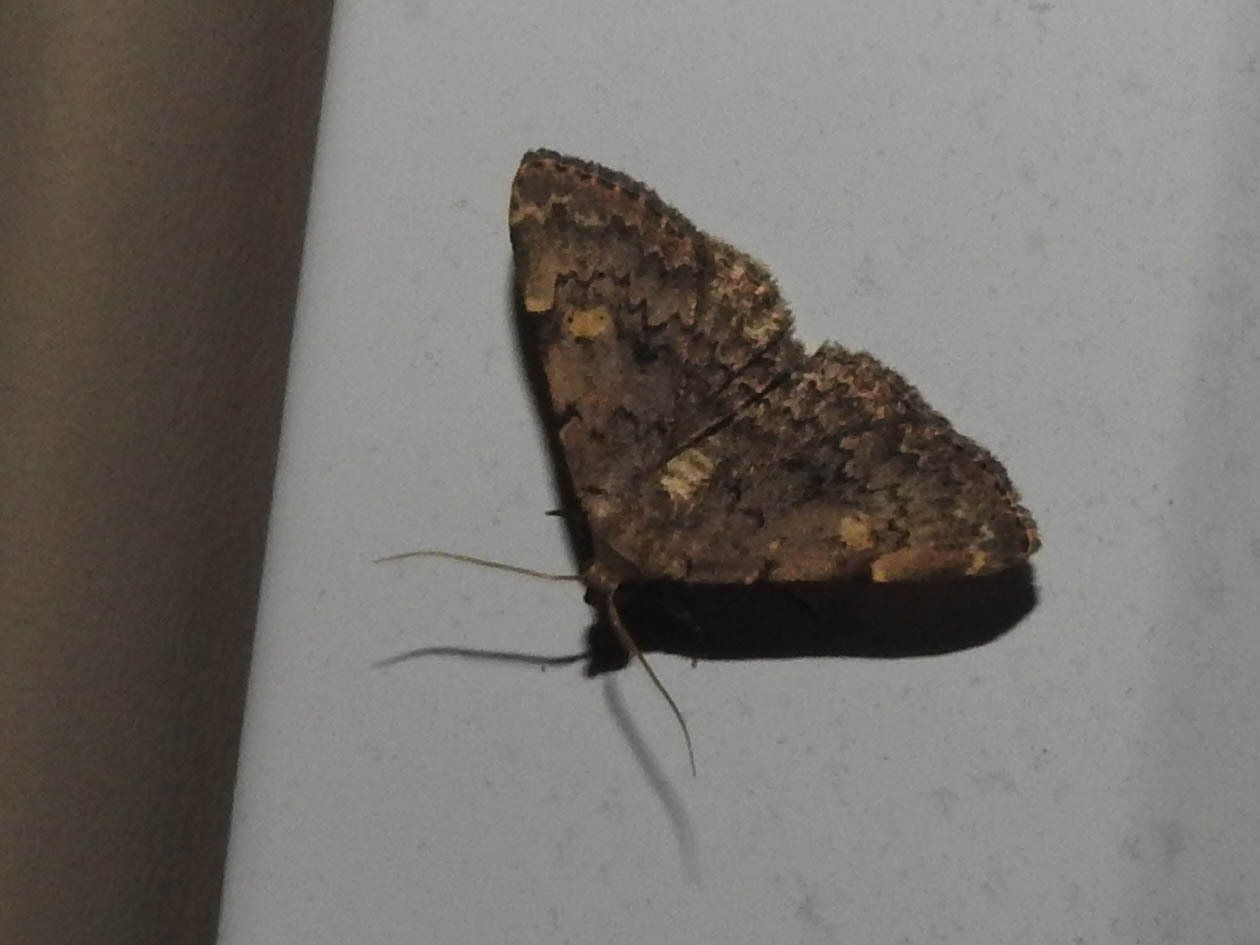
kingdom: Animalia
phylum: Arthropoda
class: Insecta
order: Lepidoptera
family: Erebidae
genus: Idia
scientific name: Idia aemula
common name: Common idia moth
